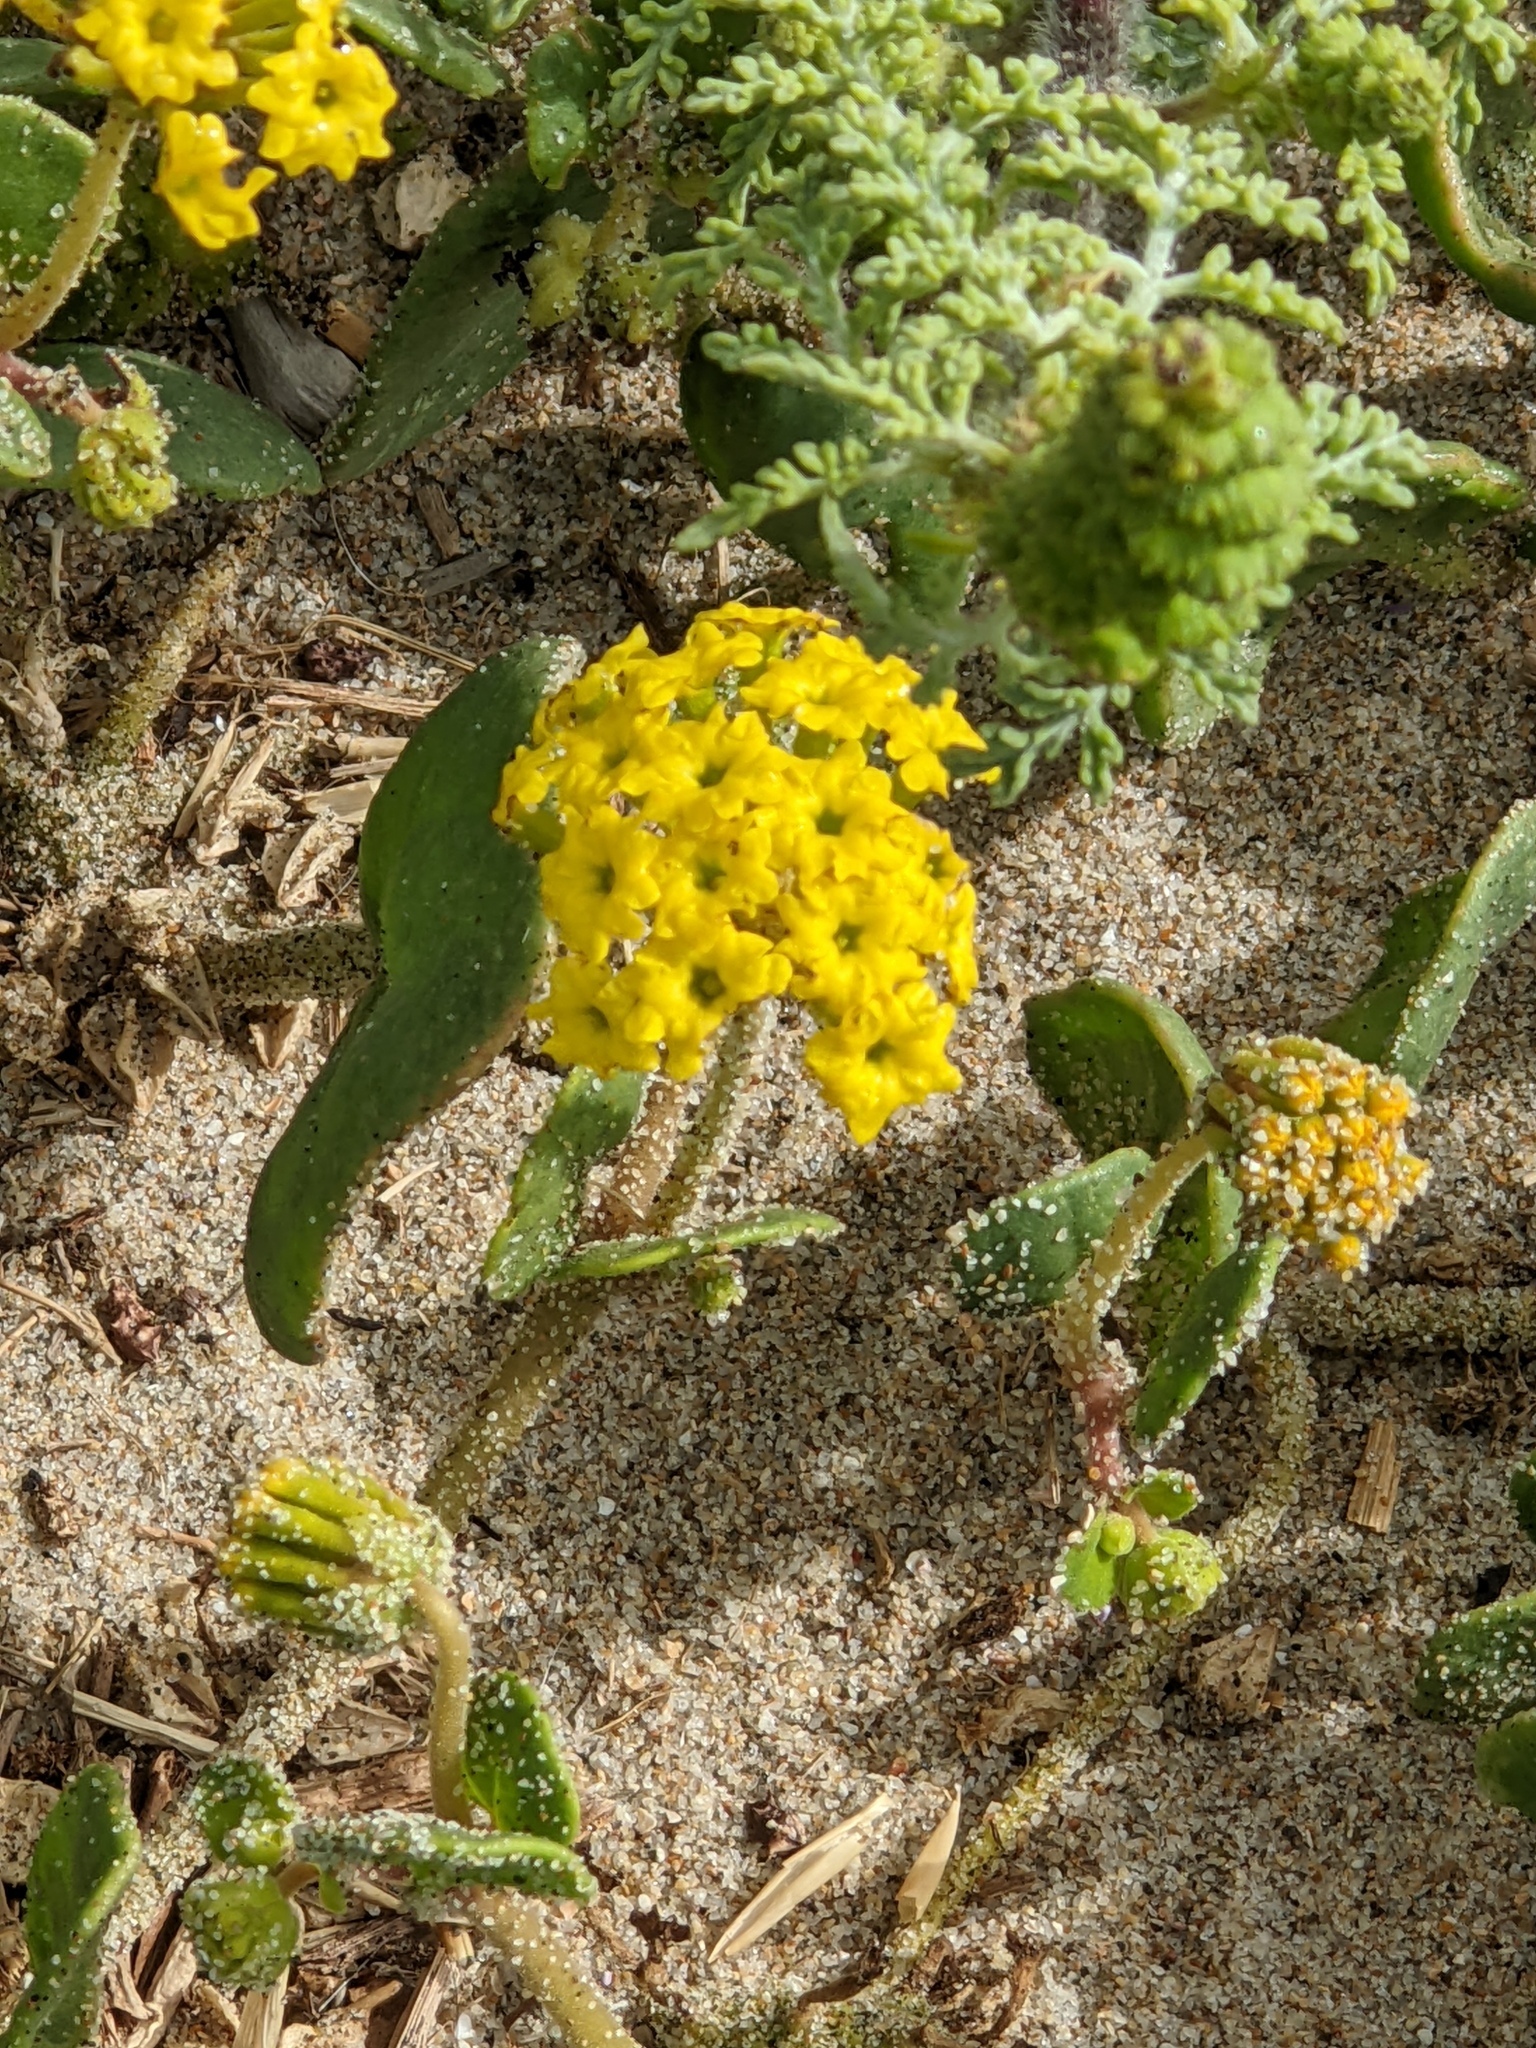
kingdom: Plantae
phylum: Tracheophyta
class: Magnoliopsida
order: Caryophyllales
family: Nyctaginaceae
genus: Abronia
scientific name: Abronia latifolia
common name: Yellow sand-verbena
